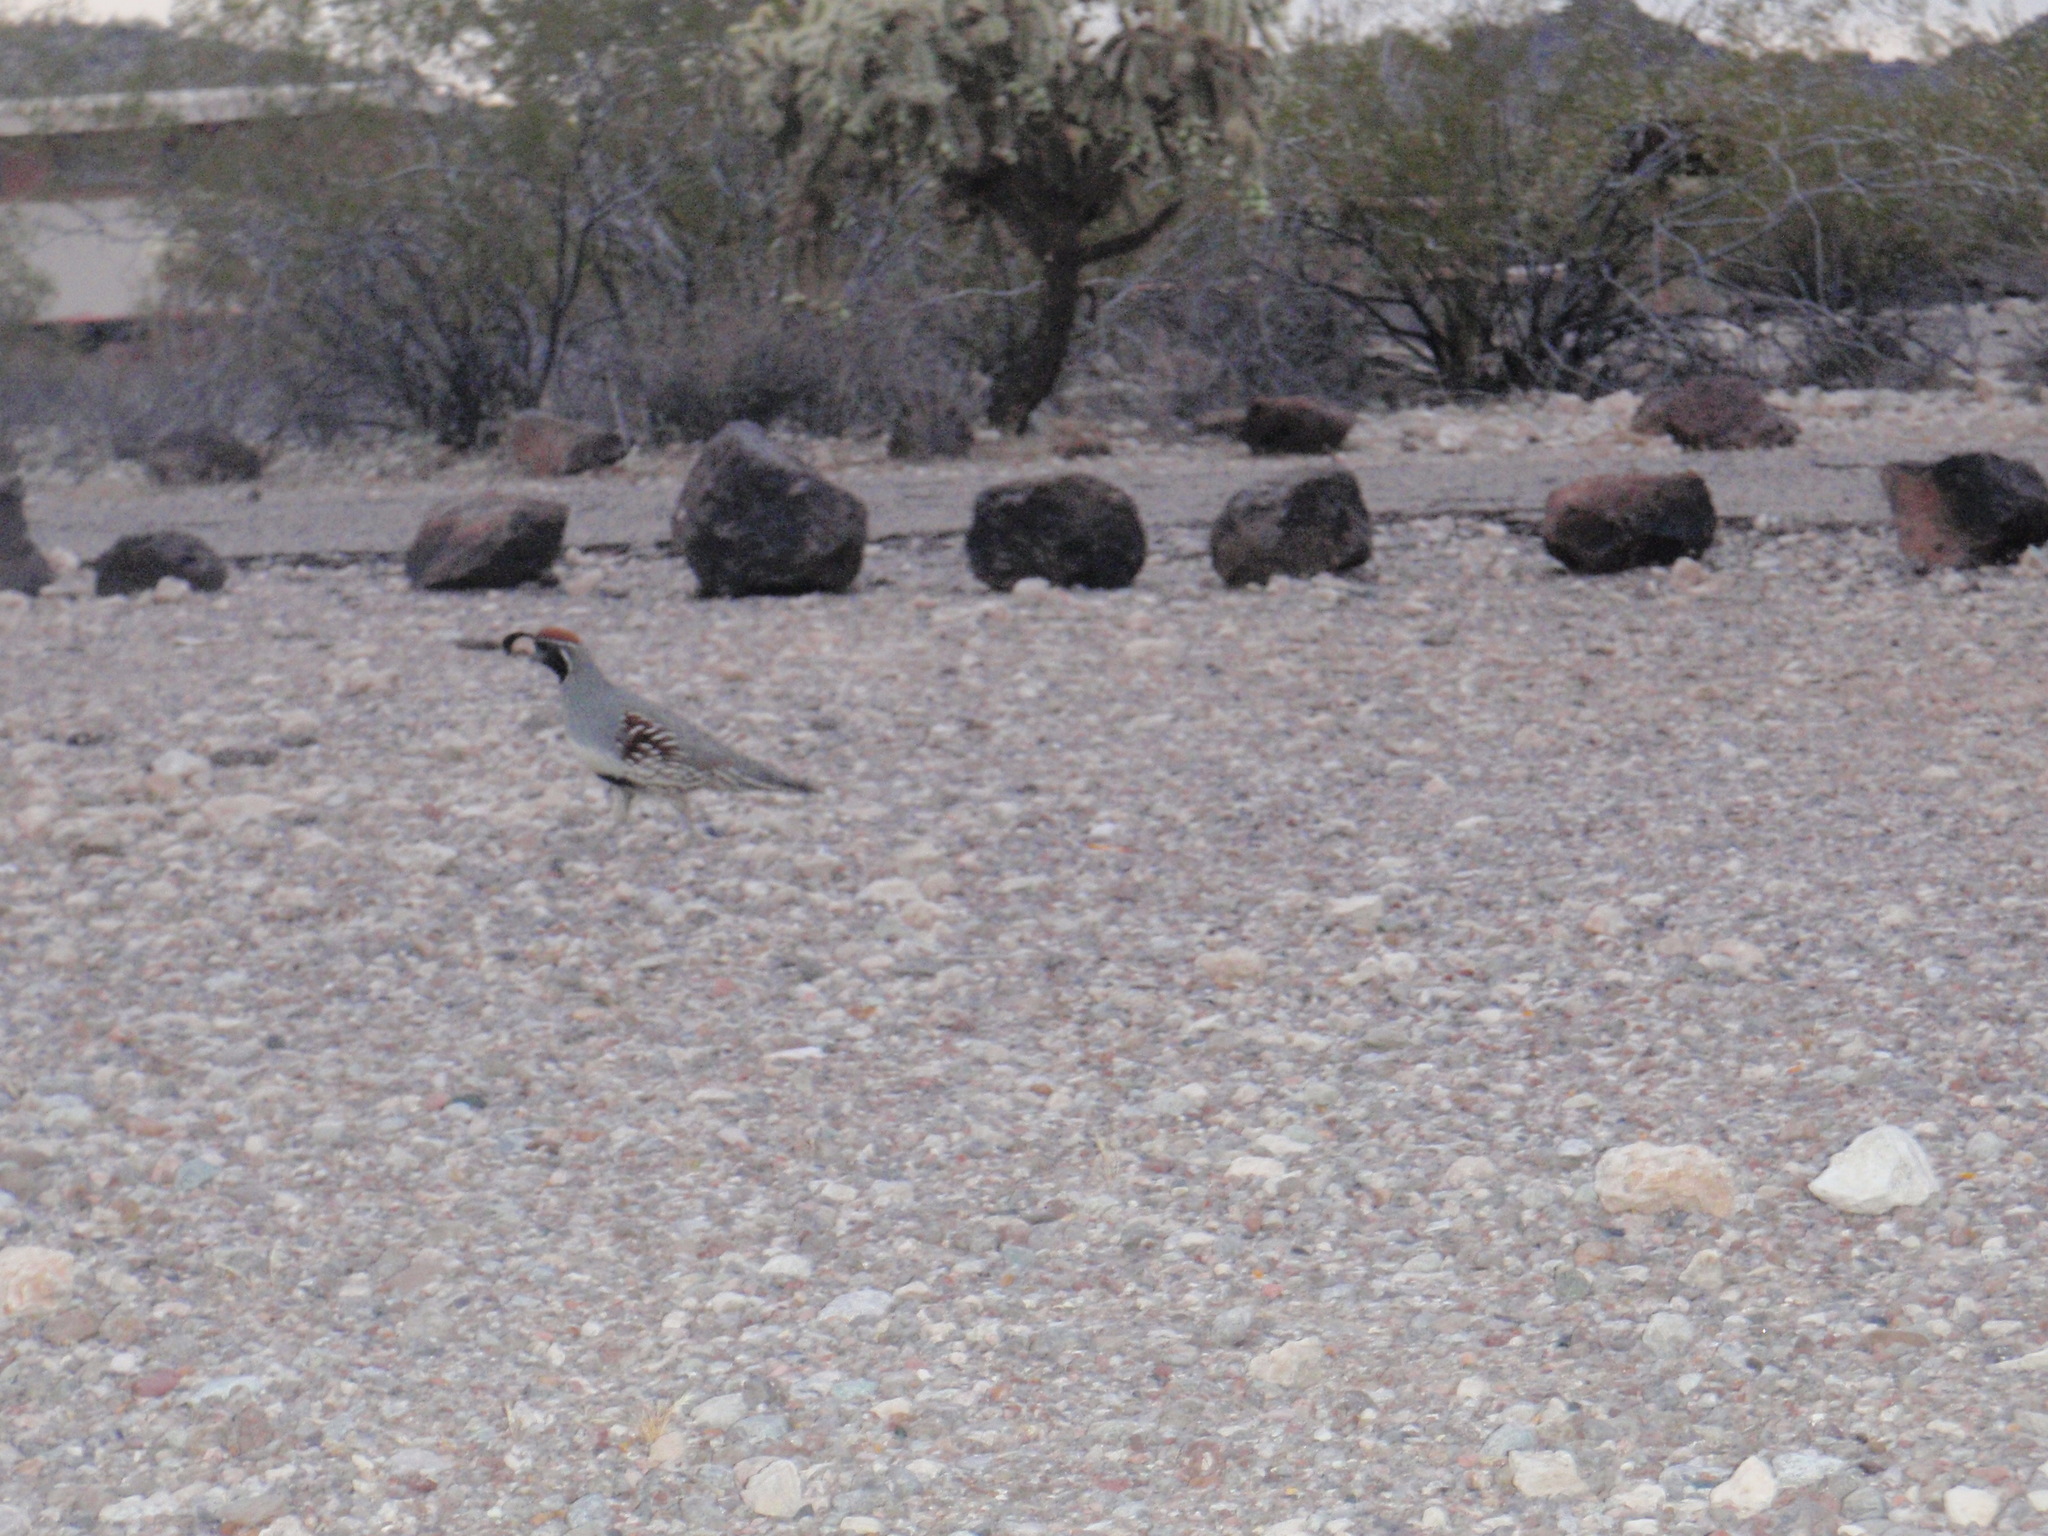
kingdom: Animalia
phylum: Chordata
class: Aves
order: Galliformes
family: Odontophoridae
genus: Callipepla
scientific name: Callipepla gambelii
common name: Gambel's quail
